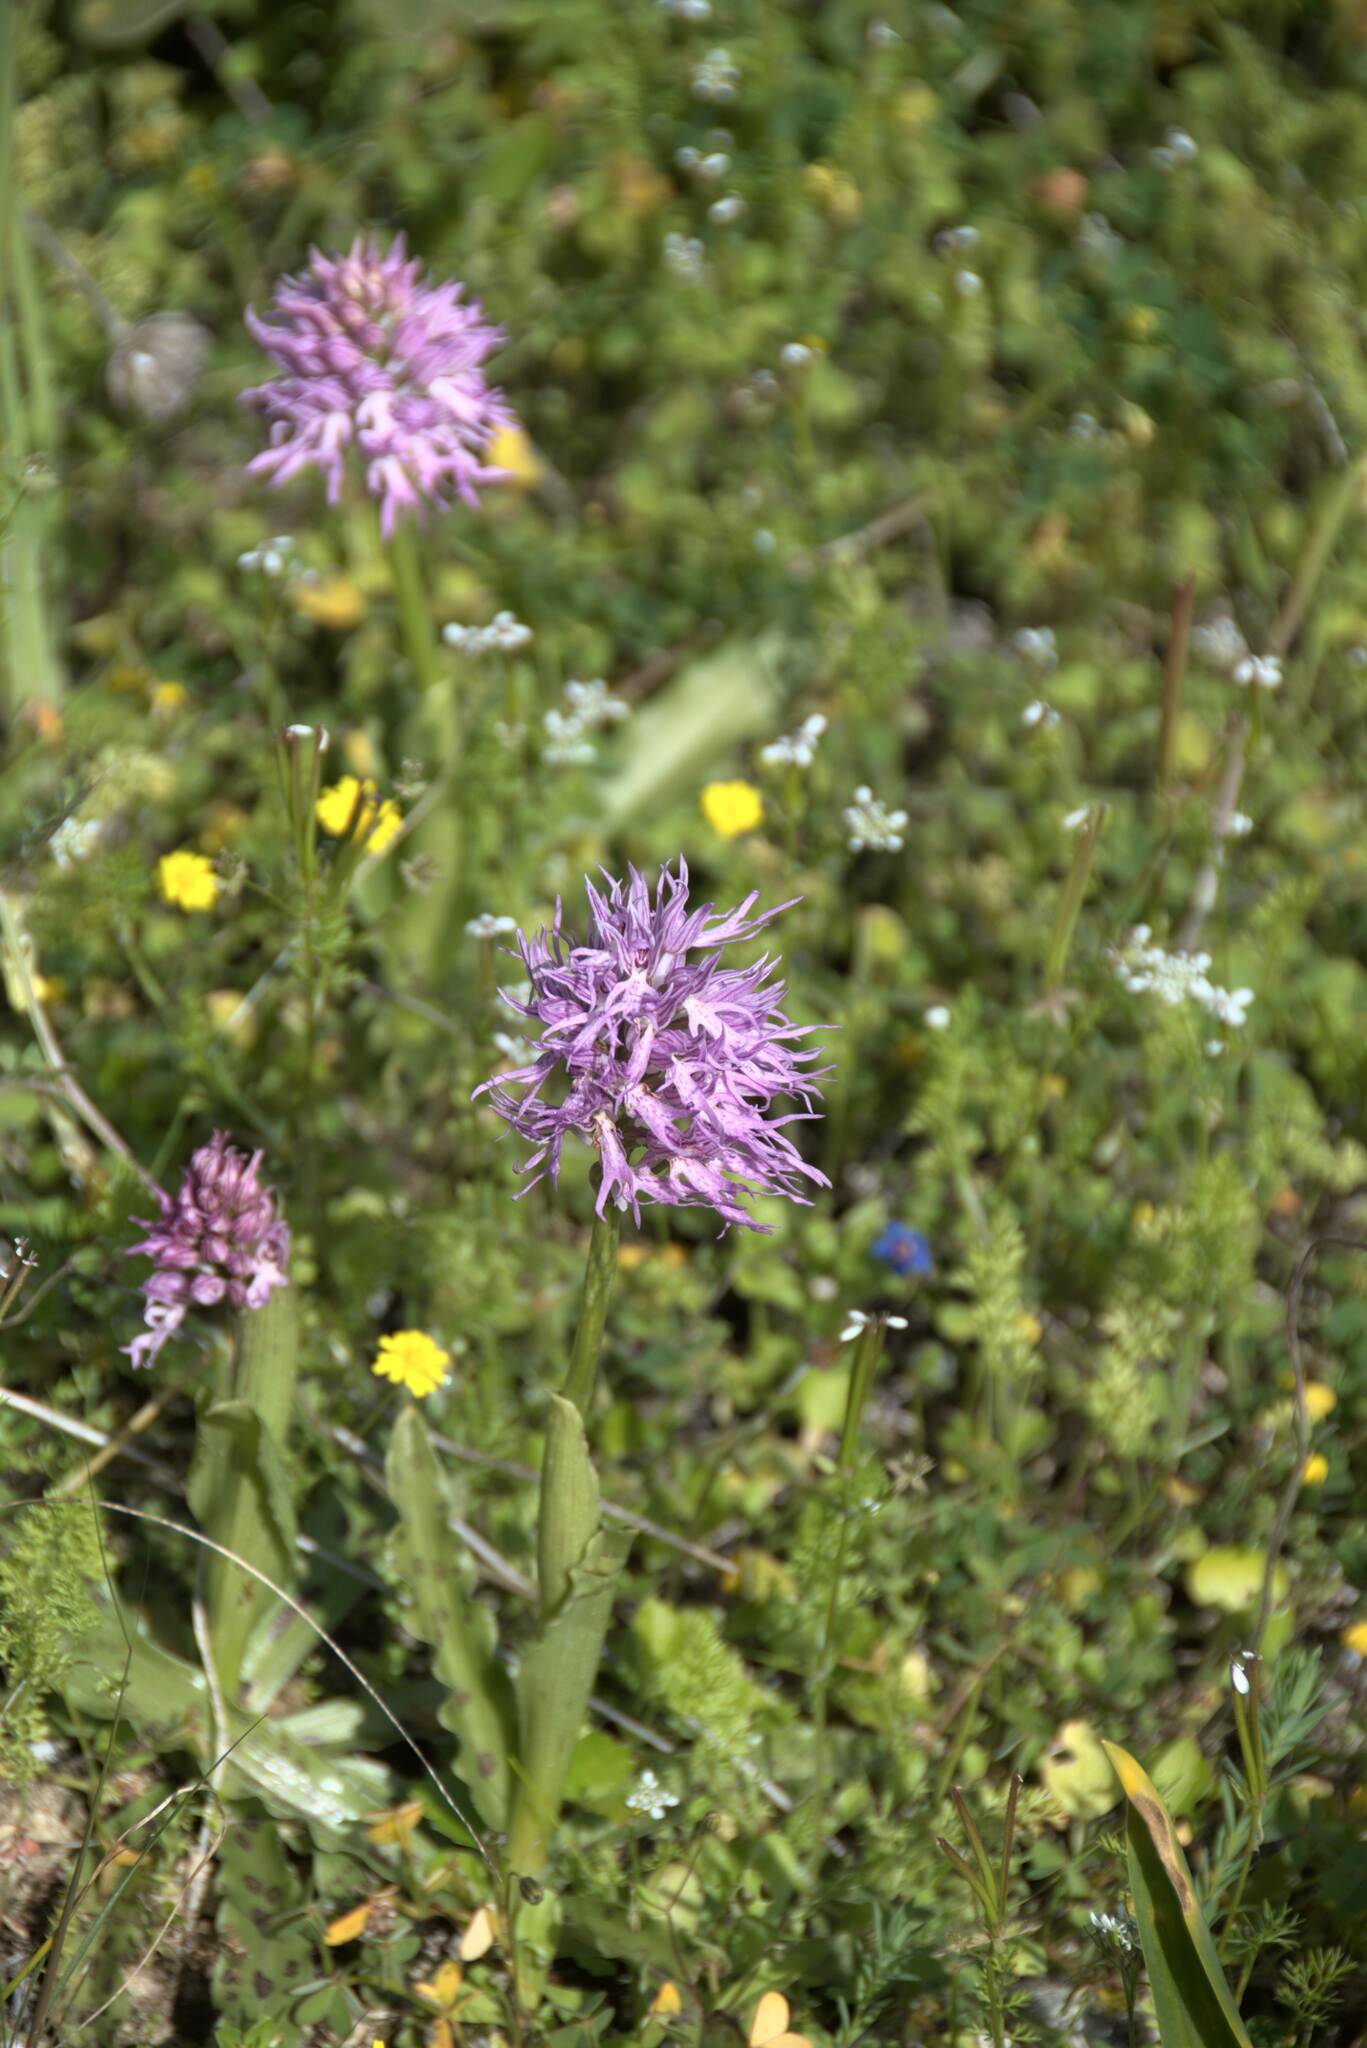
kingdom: Plantae
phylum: Tracheophyta
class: Liliopsida
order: Asparagales
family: Orchidaceae
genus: Orchis
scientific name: Orchis italica
